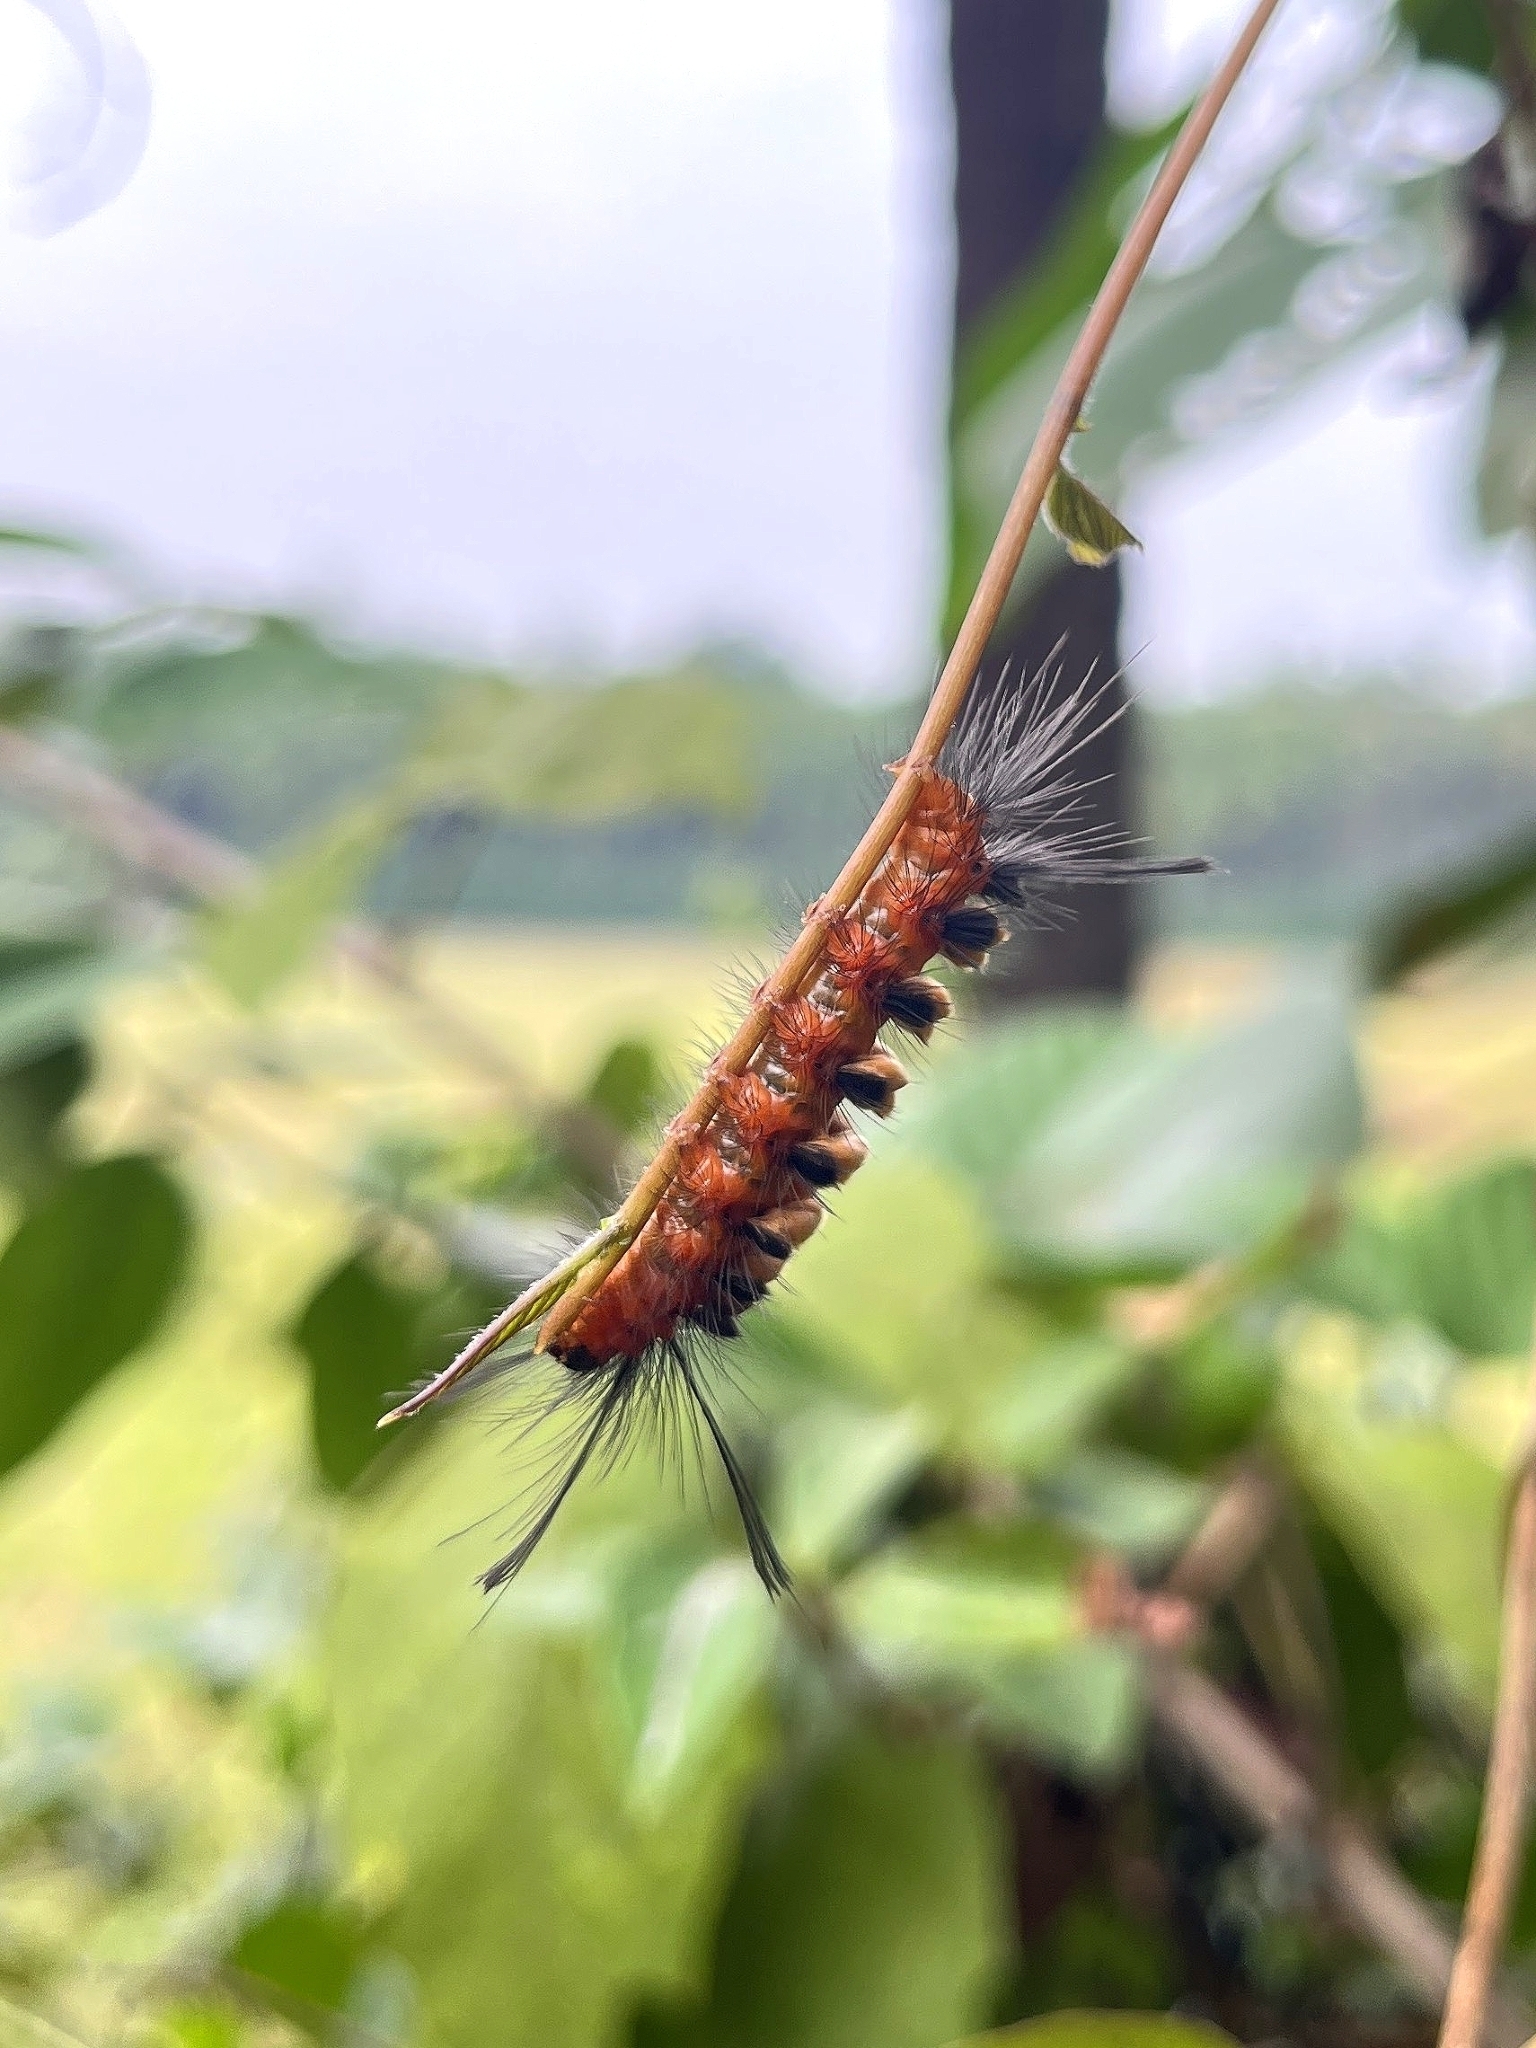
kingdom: Animalia
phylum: Arthropoda
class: Insecta
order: Lepidoptera
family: Erebidae
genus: Euchromia
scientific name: Euchromia polymena
